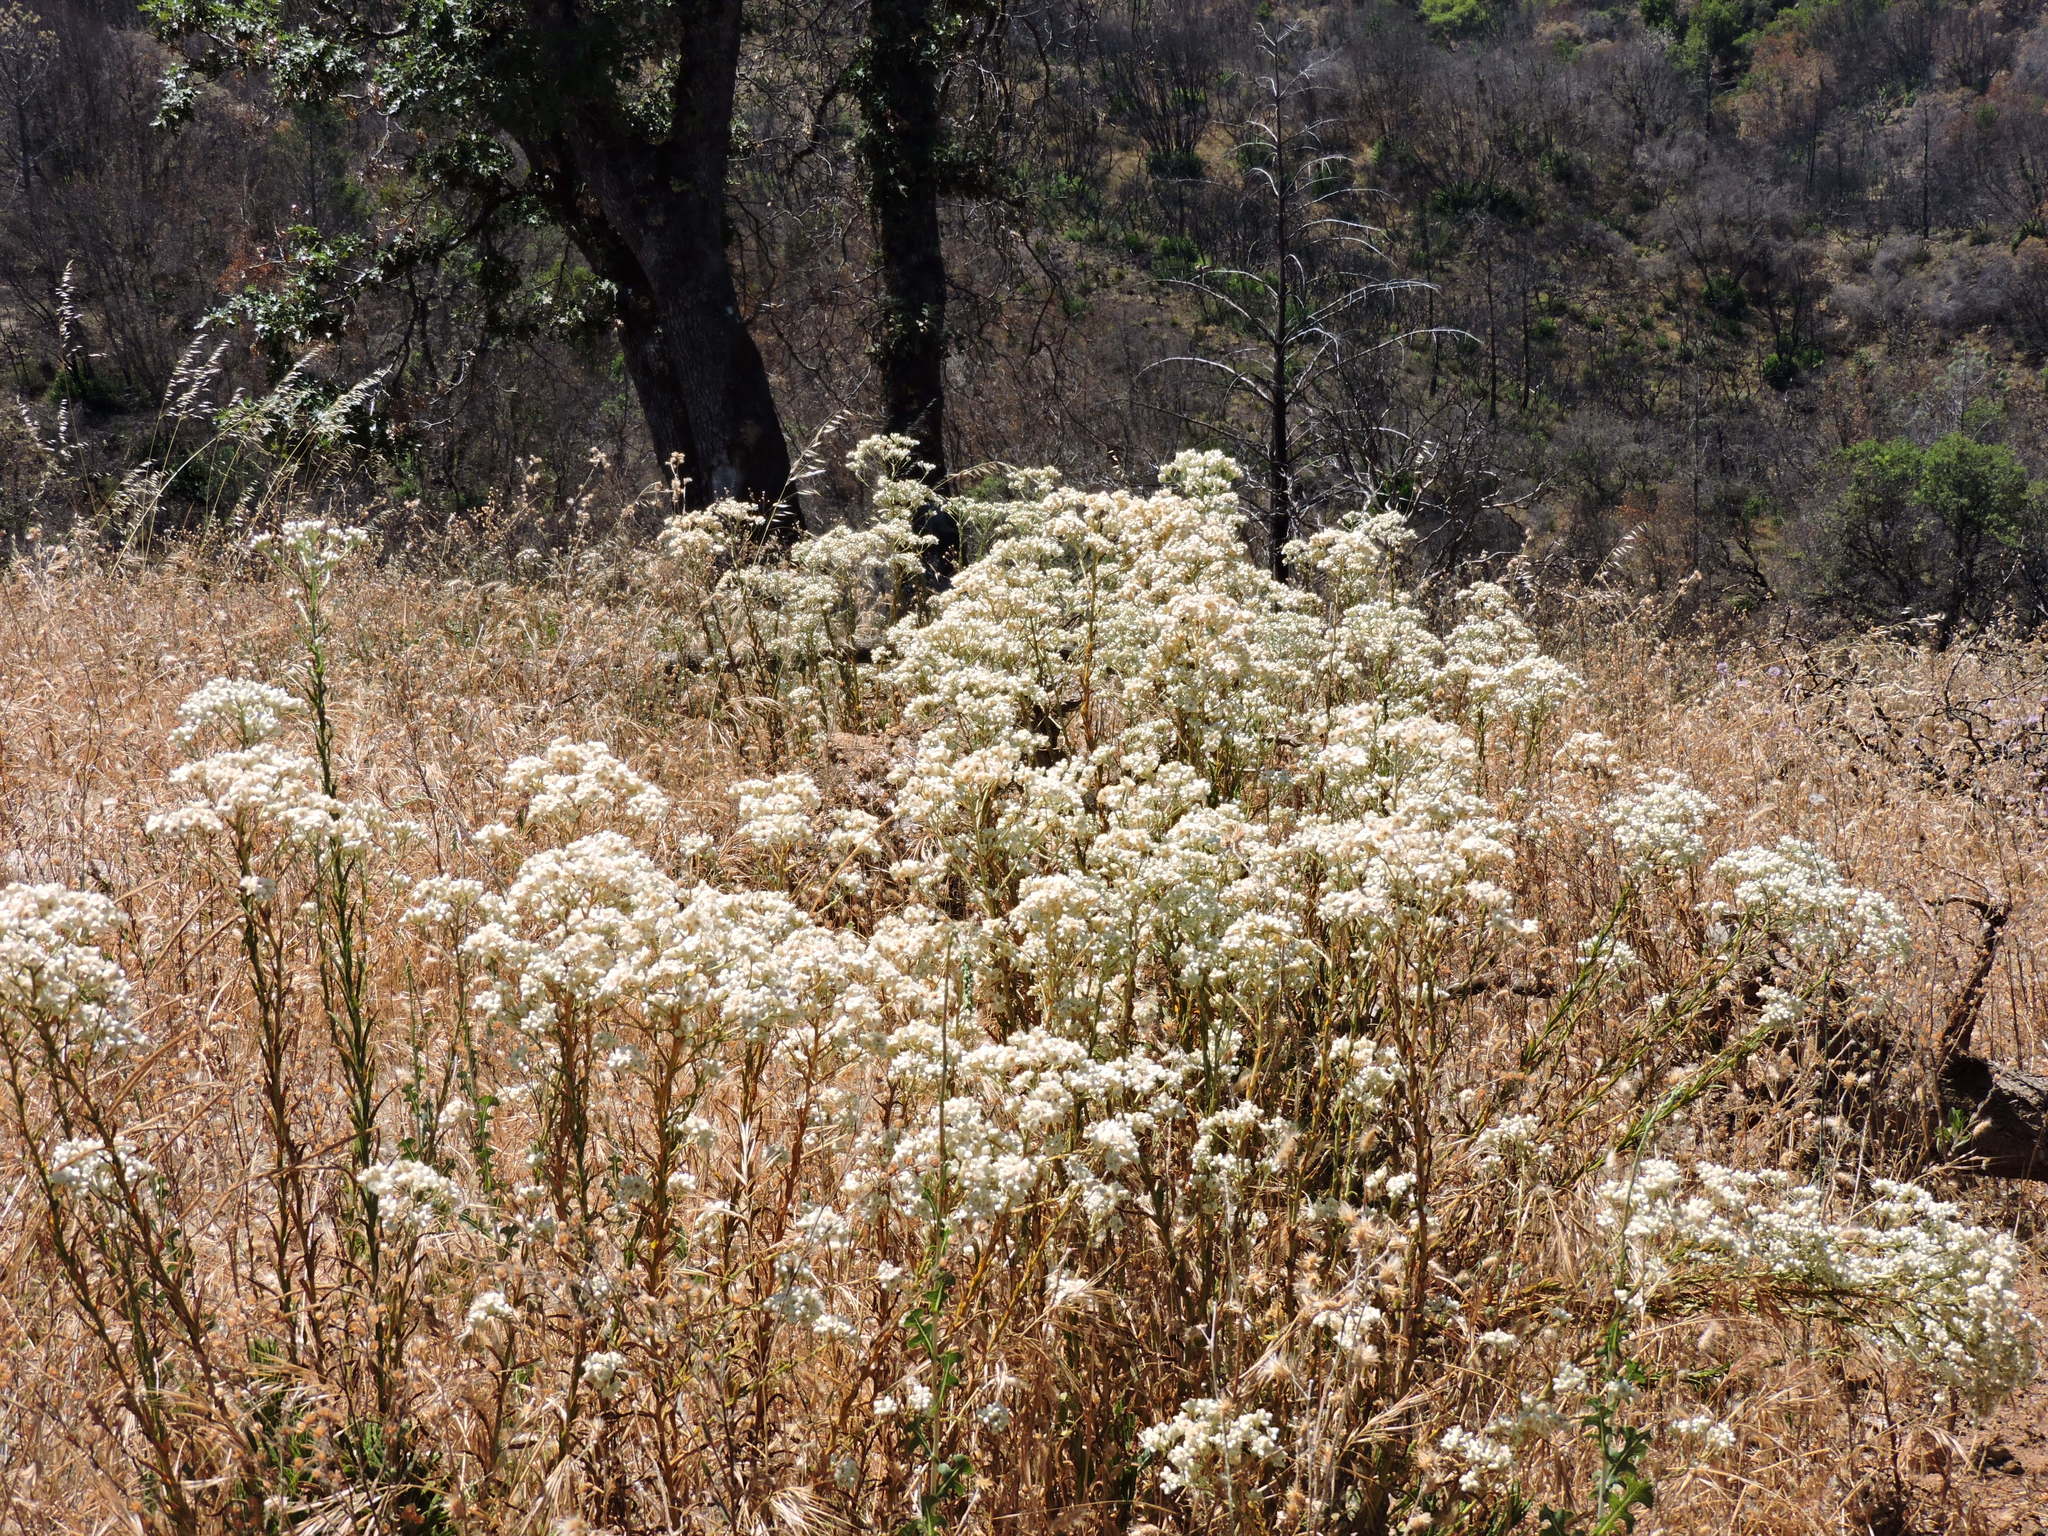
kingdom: Plantae
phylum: Tracheophyta
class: Magnoliopsida
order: Asterales
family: Asteraceae
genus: Pseudognaphalium
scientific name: Pseudognaphalium californicum
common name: California rabbit-tobacco
